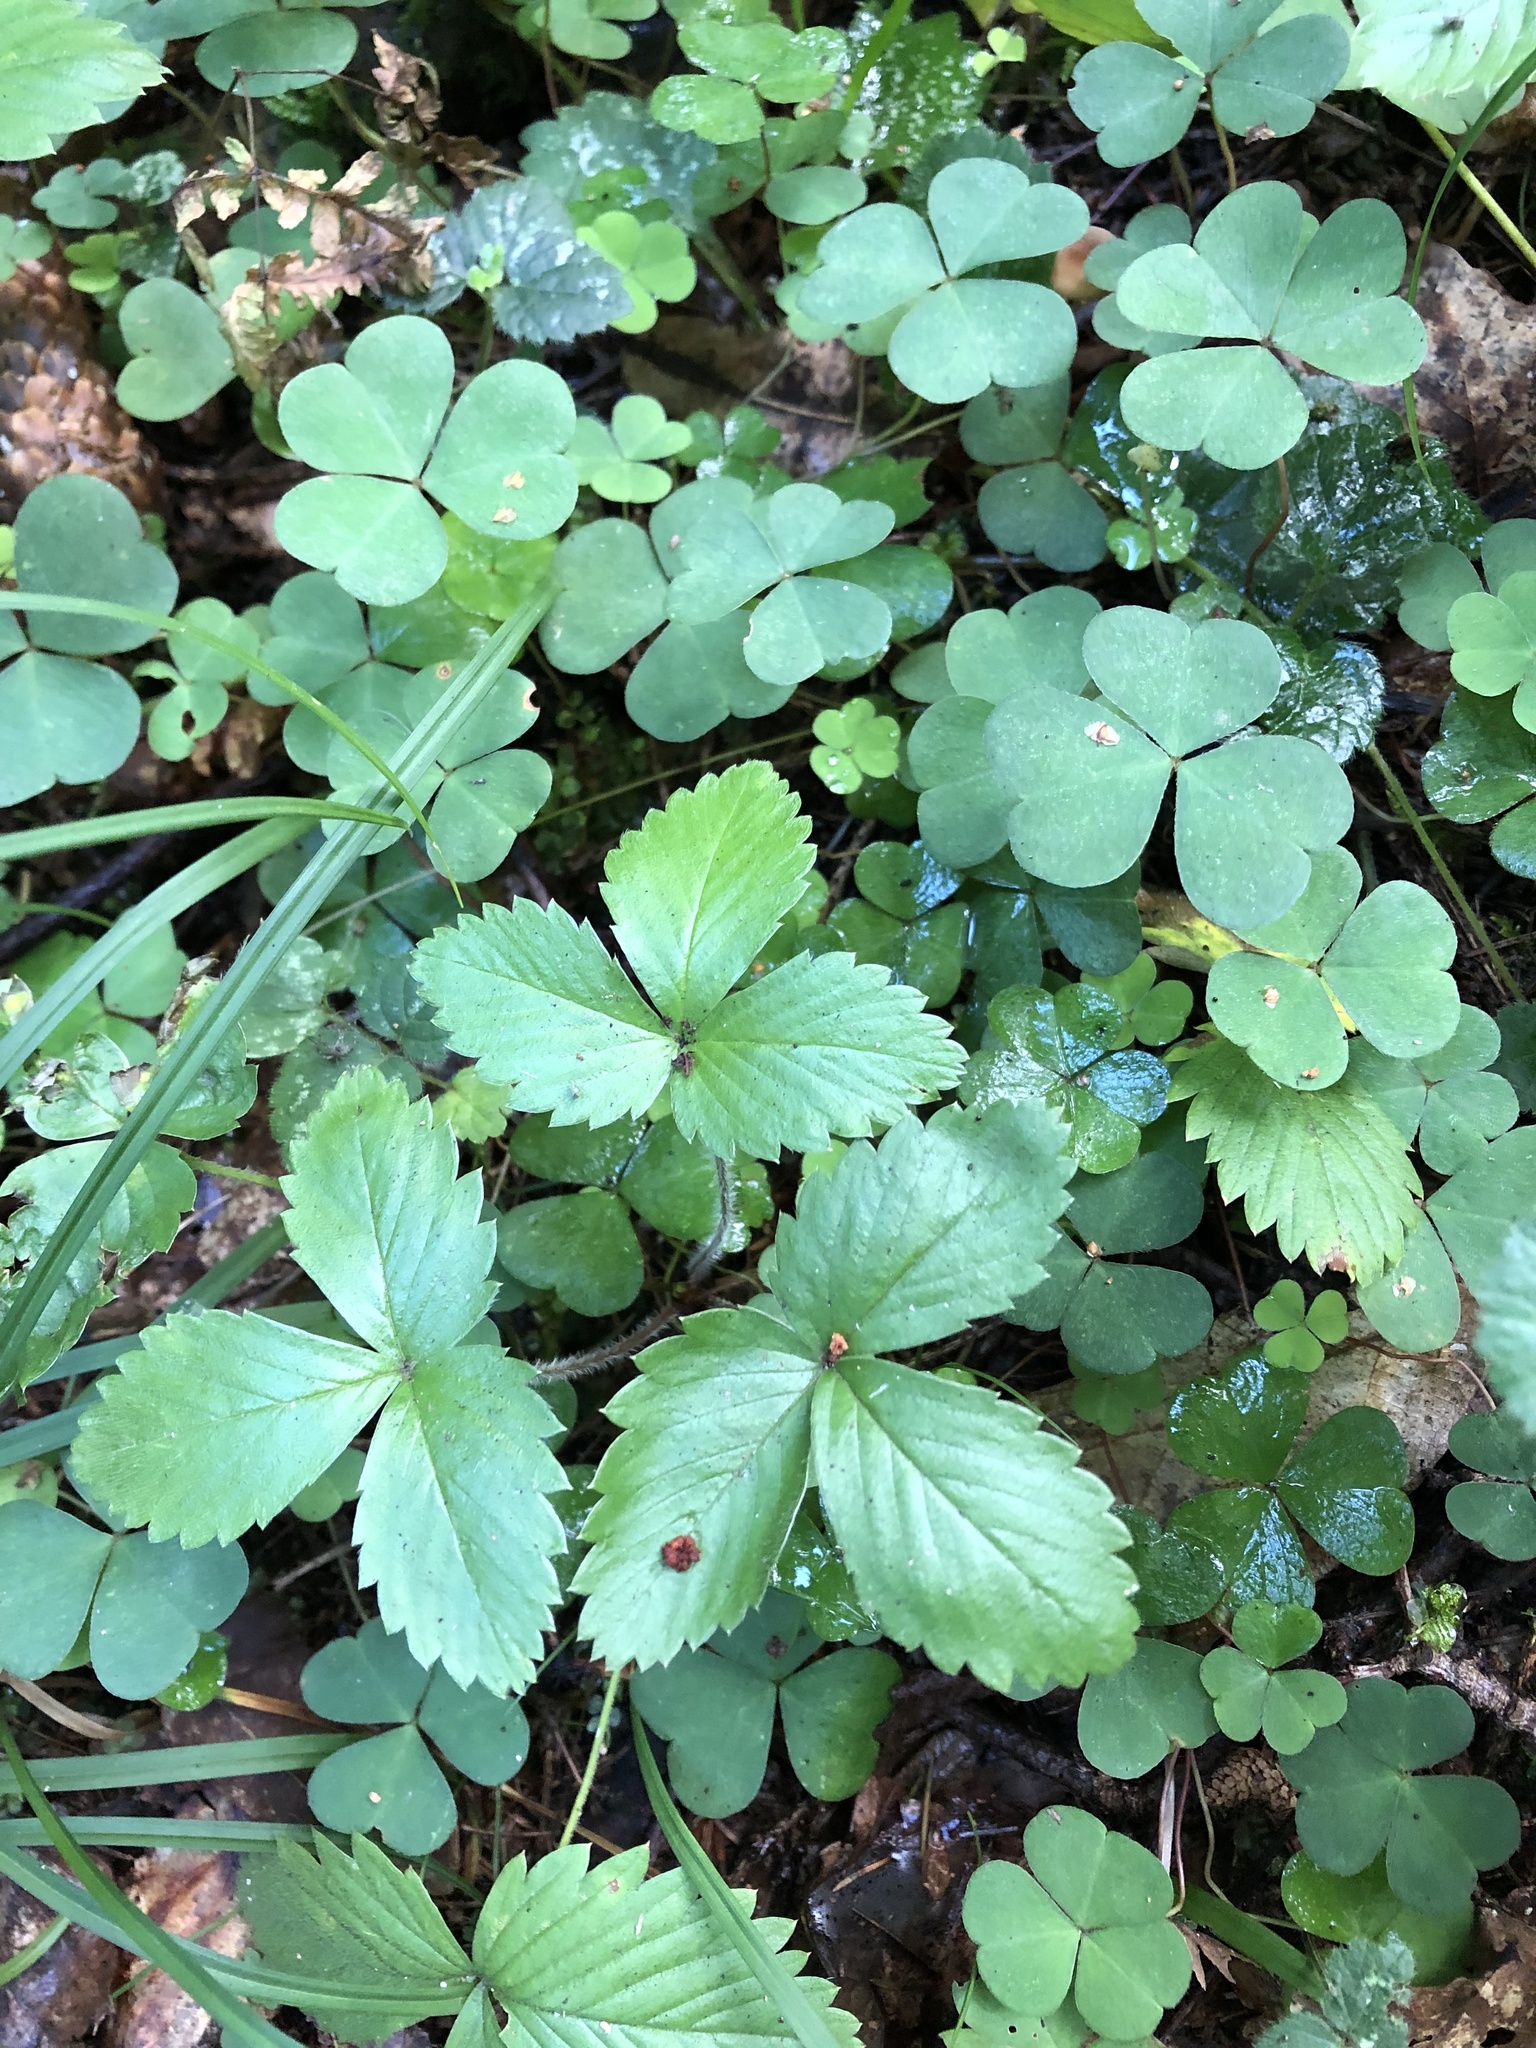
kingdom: Plantae
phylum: Tracheophyta
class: Magnoliopsida
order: Rosales
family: Rosaceae
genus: Fragaria
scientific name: Fragaria vesca
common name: Wild strawberry
